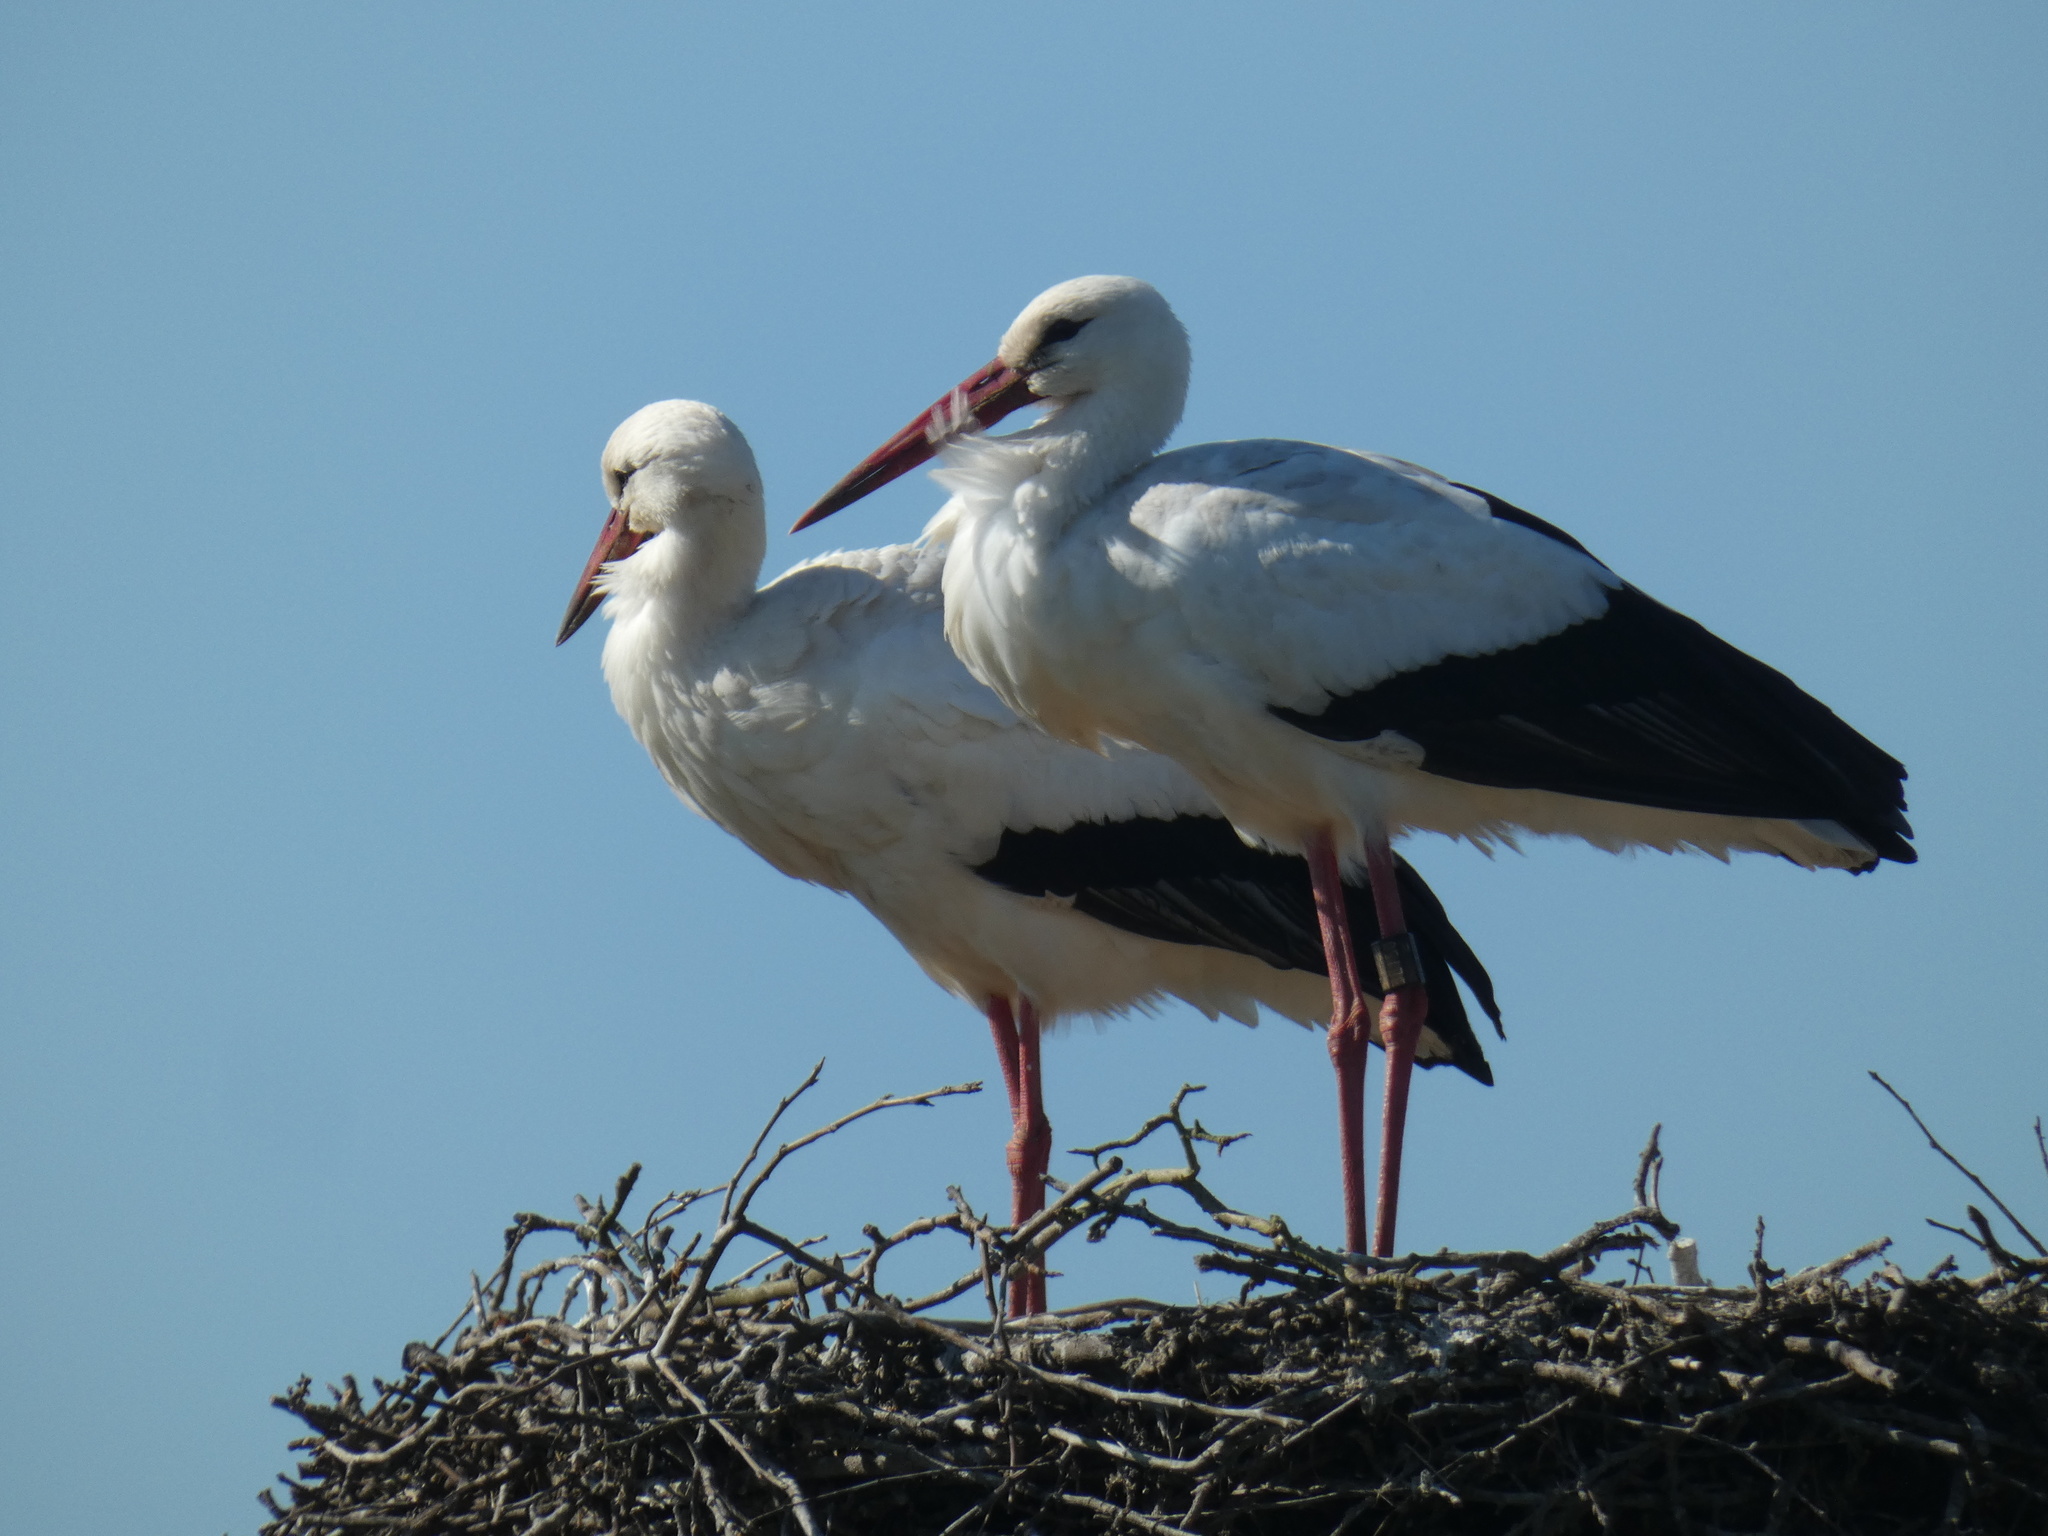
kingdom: Animalia
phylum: Chordata
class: Aves
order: Ciconiiformes
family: Ciconiidae
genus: Ciconia
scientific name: Ciconia ciconia
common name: White stork
